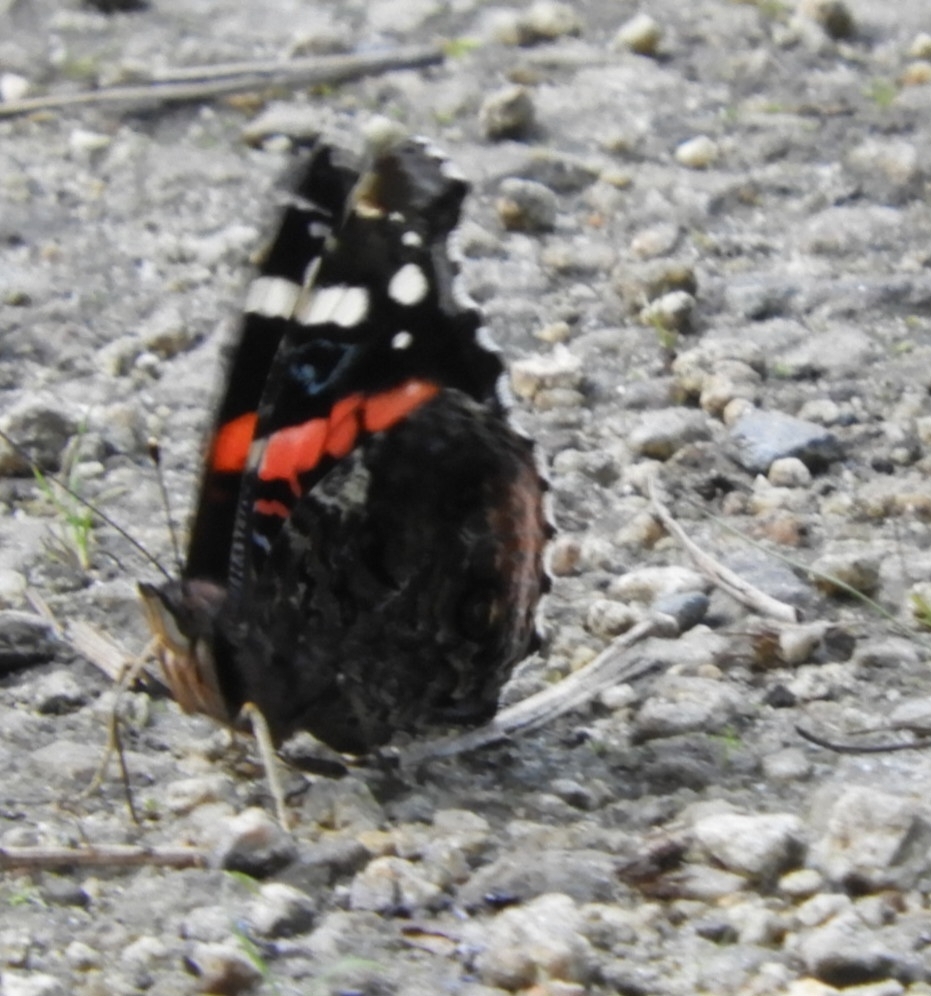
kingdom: Animalia
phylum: Arthropoda
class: Insecta
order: Lepidoptera
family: Nymphalidae
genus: Vanessa
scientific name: Vanessa atalanta
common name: Red admiral
